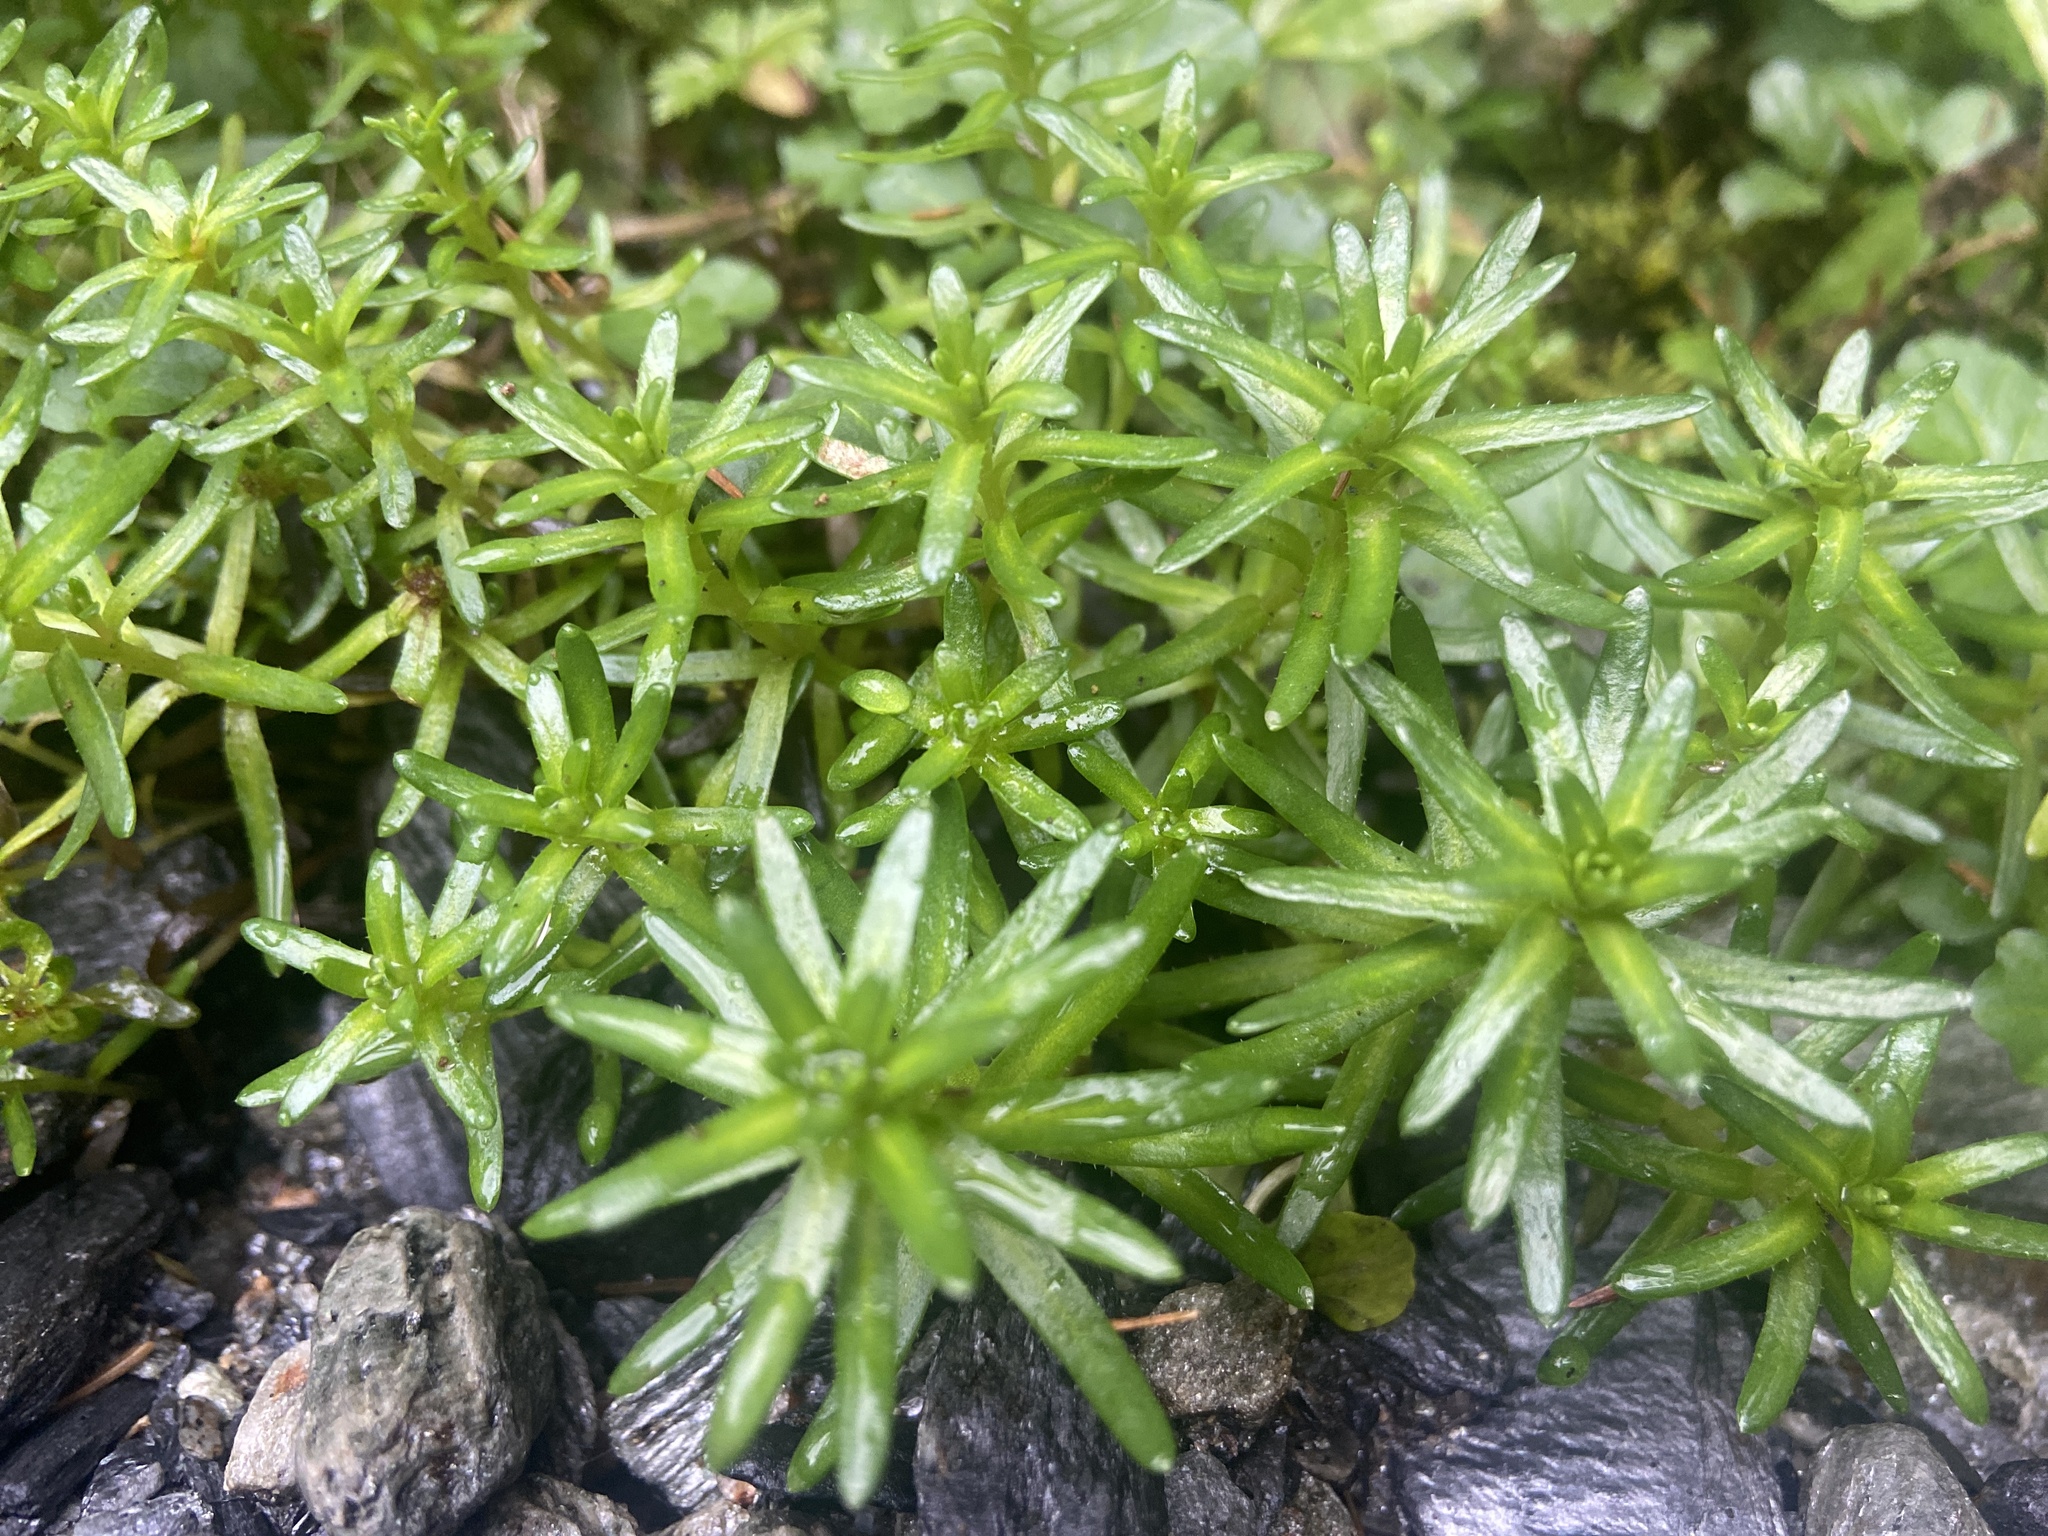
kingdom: Plantae
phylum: Tracheophyta
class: Magnoliopsida
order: Saxifragales
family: Saxifragaceae
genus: Saxifraga
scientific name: Saxifraga aizoides
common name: Yellow mountain saxifrage
